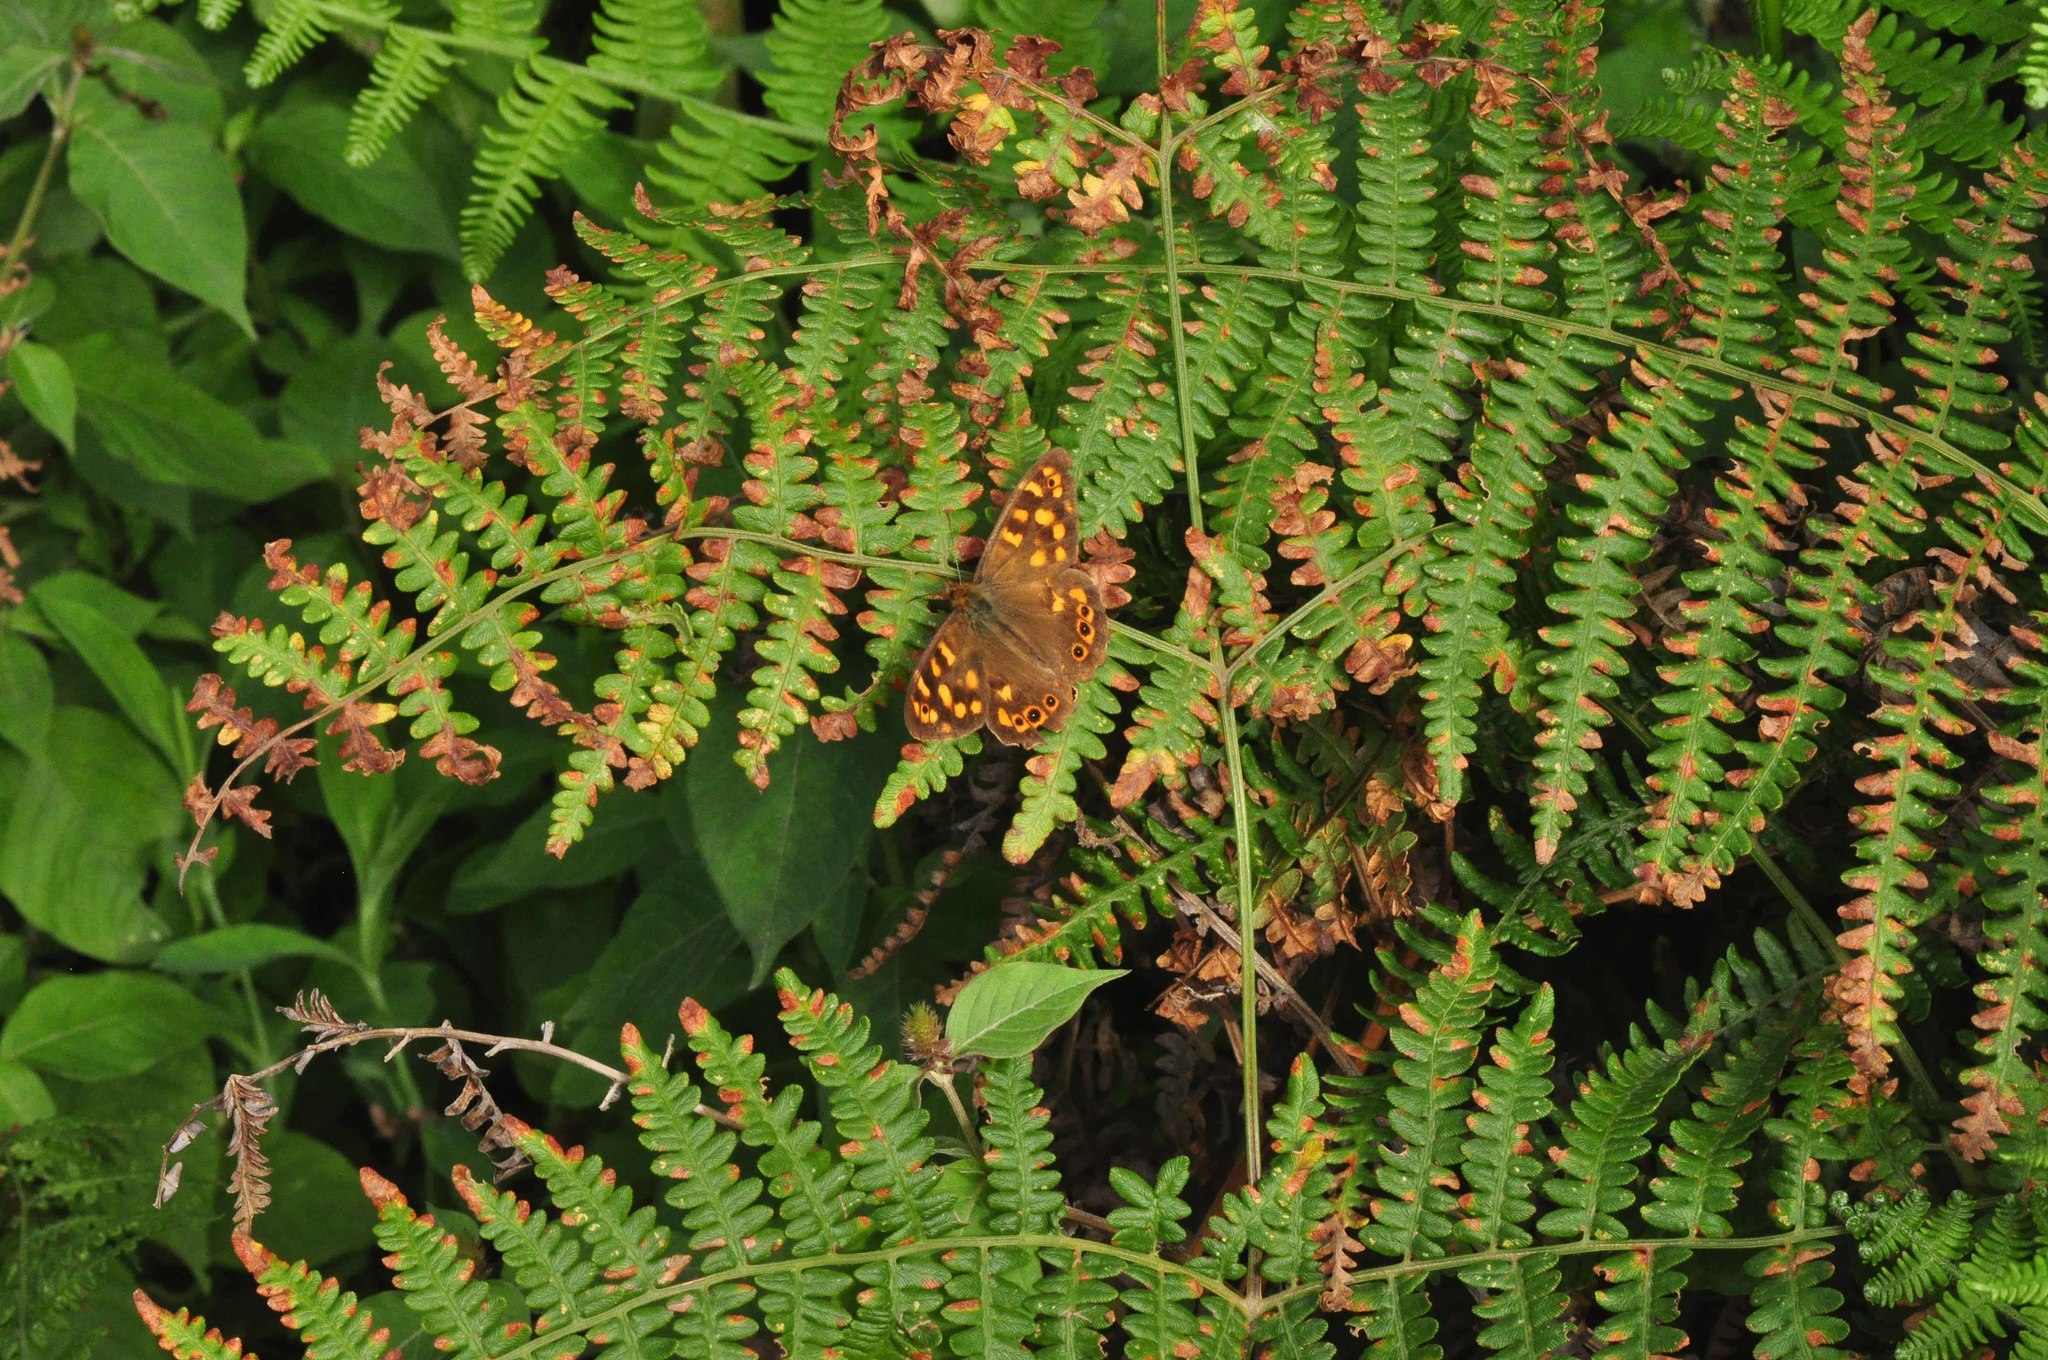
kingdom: Animalia
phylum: Arthropoda
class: Insecta
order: Lepidoptera
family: Nymphalidae
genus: Pararge
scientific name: Pararge aegeria
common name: Speckled wood
